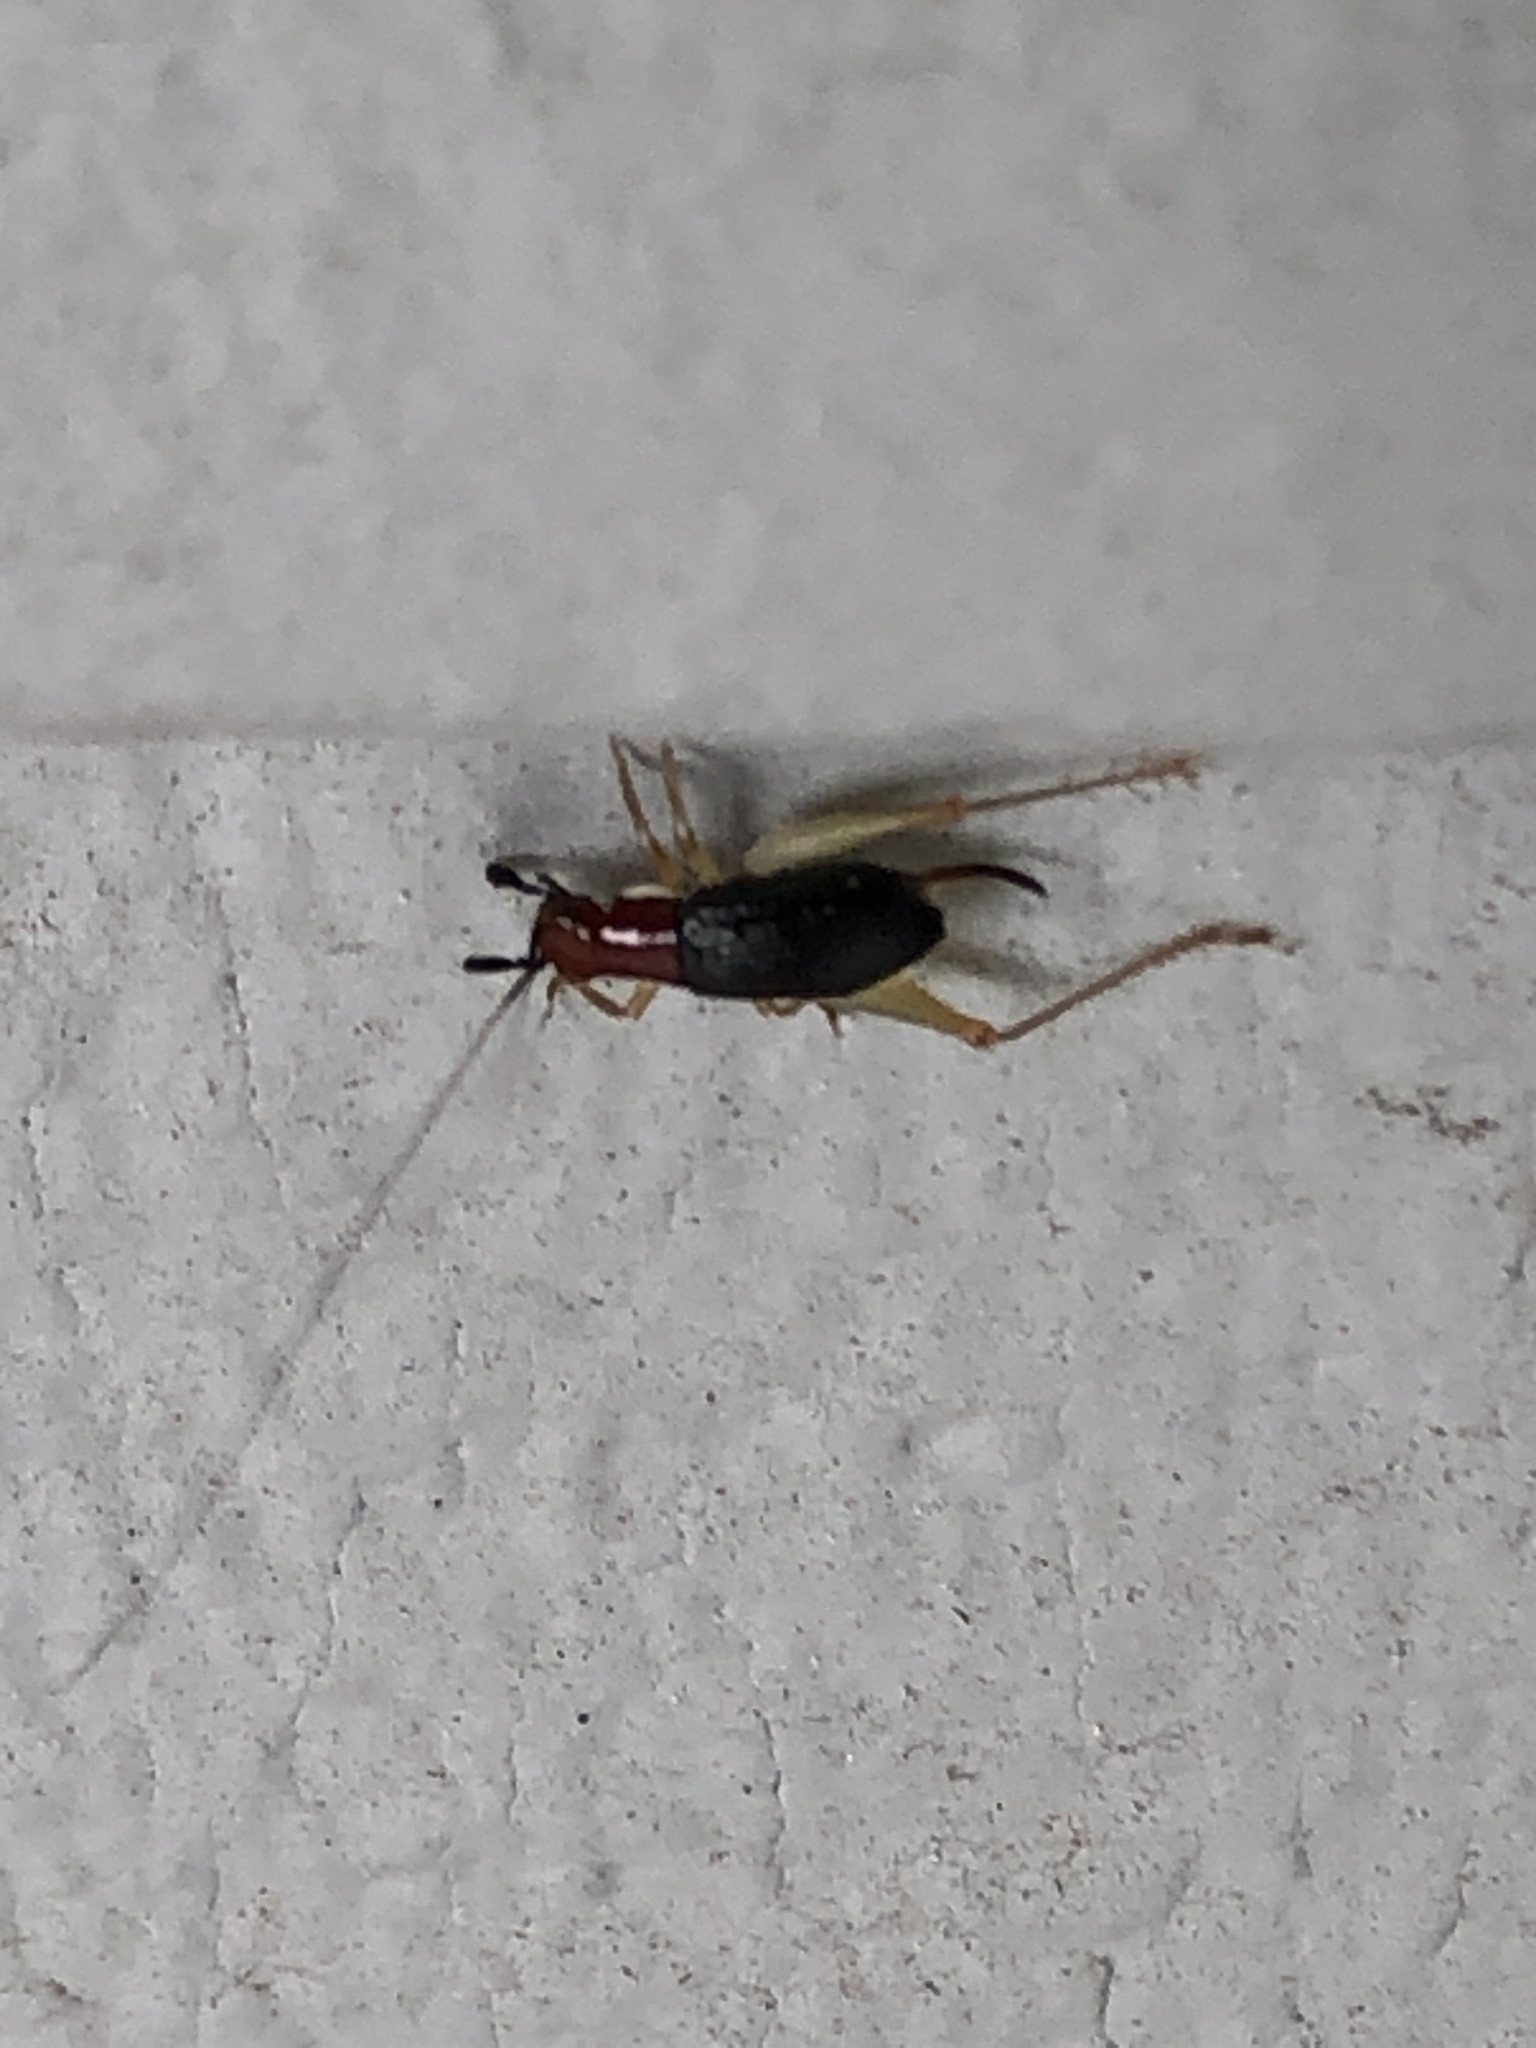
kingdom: Animalia
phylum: Arthropoda
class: Insecta
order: Orthoptera
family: Trigonidiidae
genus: Phyllopalpus
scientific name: Phyllopalpus pulchellus
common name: Handsome trig
